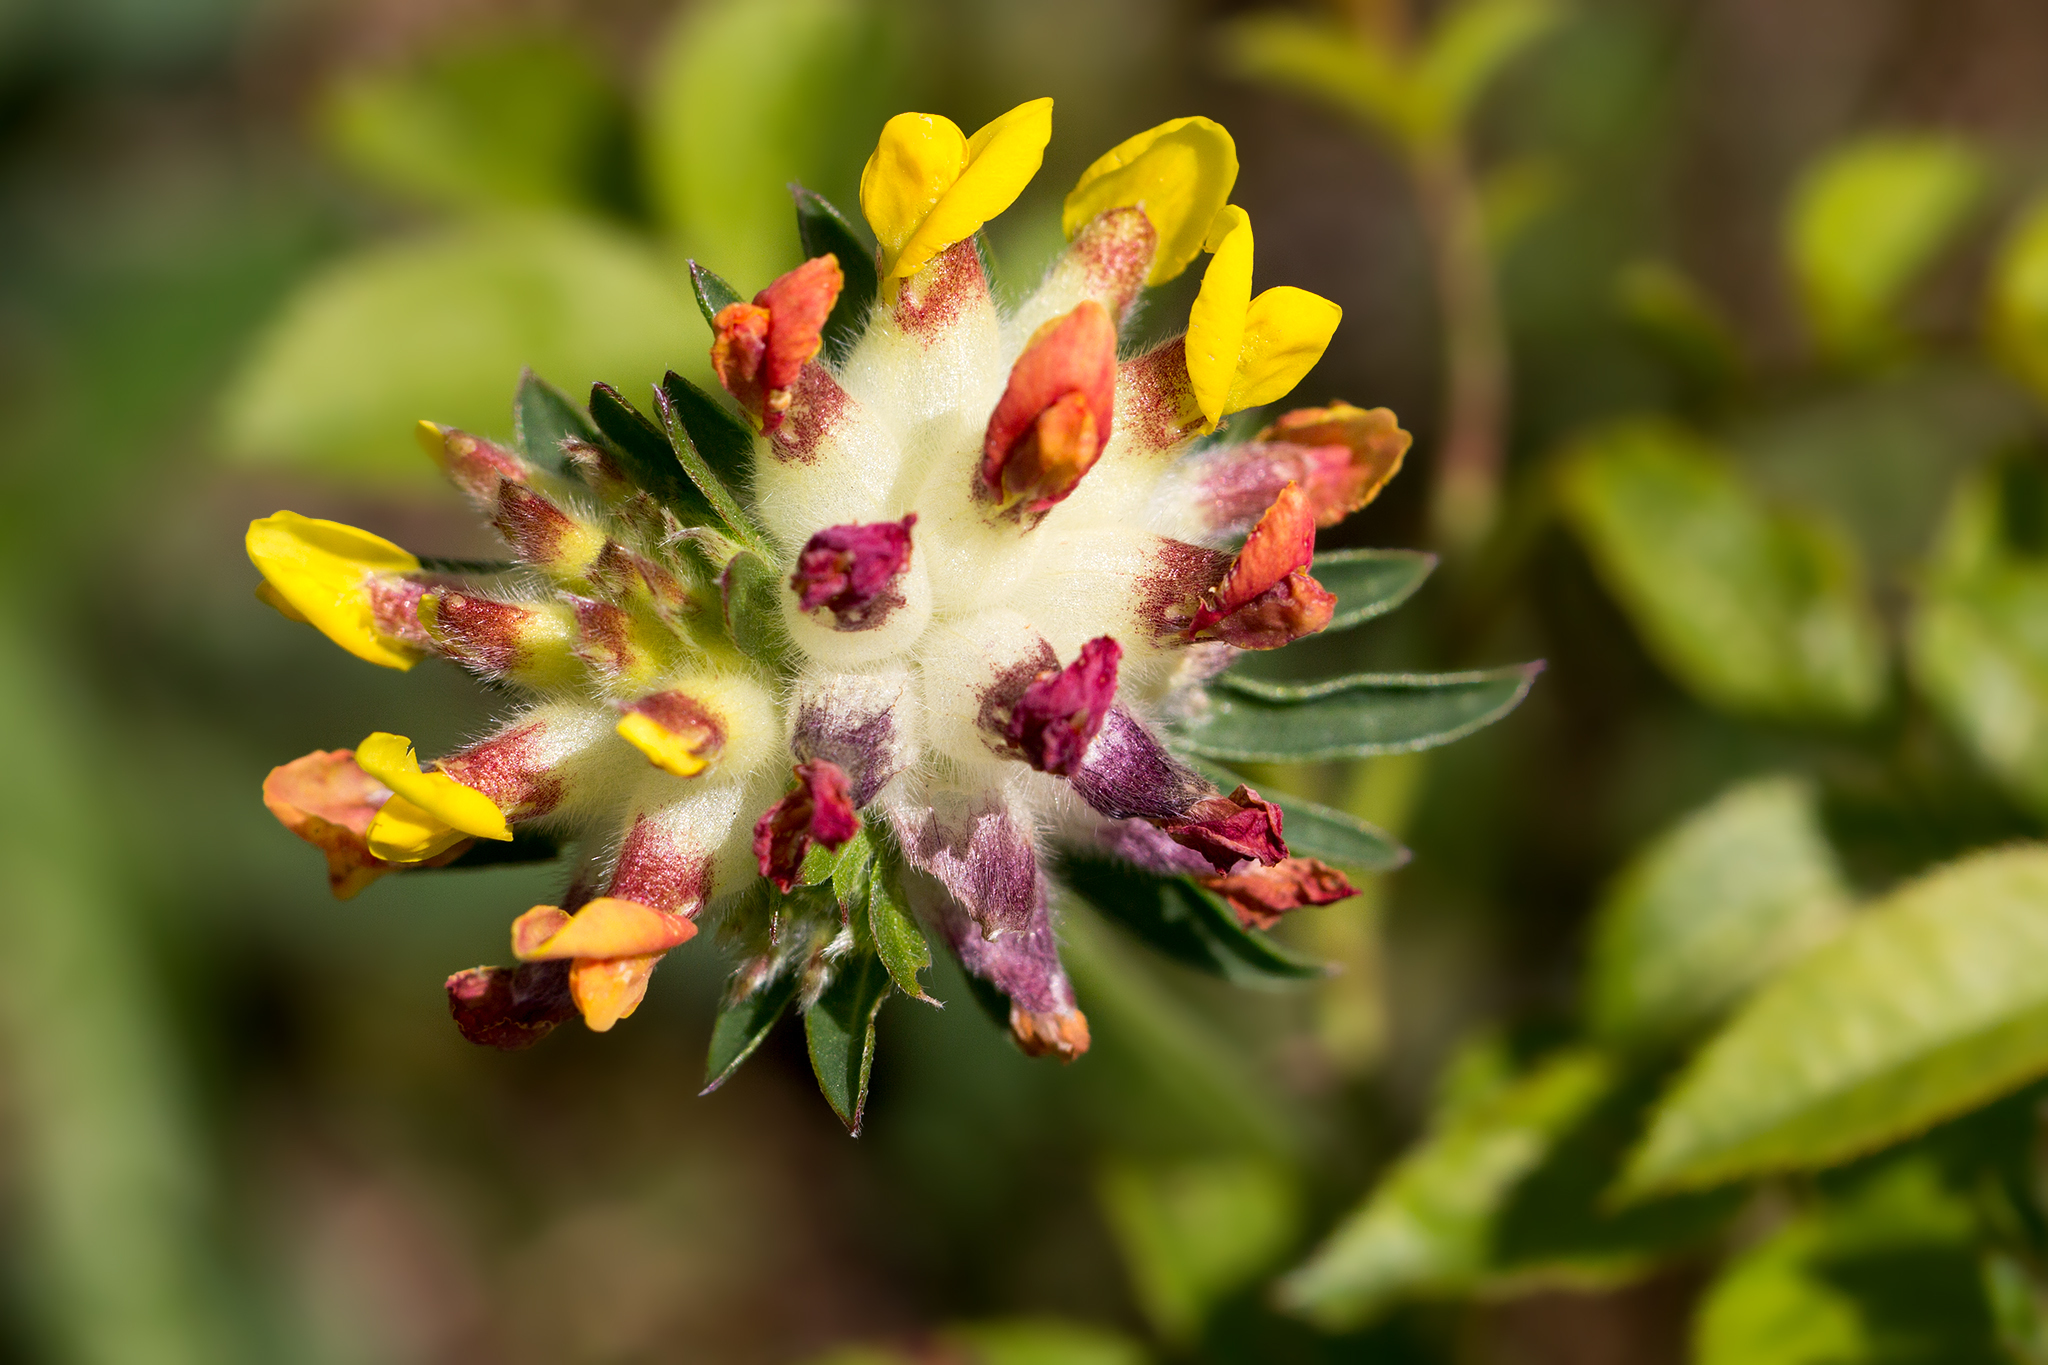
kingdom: Plantae
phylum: Tracheophyta
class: Magnoliopsida
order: Fabales
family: Fabaceae
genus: Anthyllis
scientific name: Anthyllis vulneraria
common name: Kidney vetch
